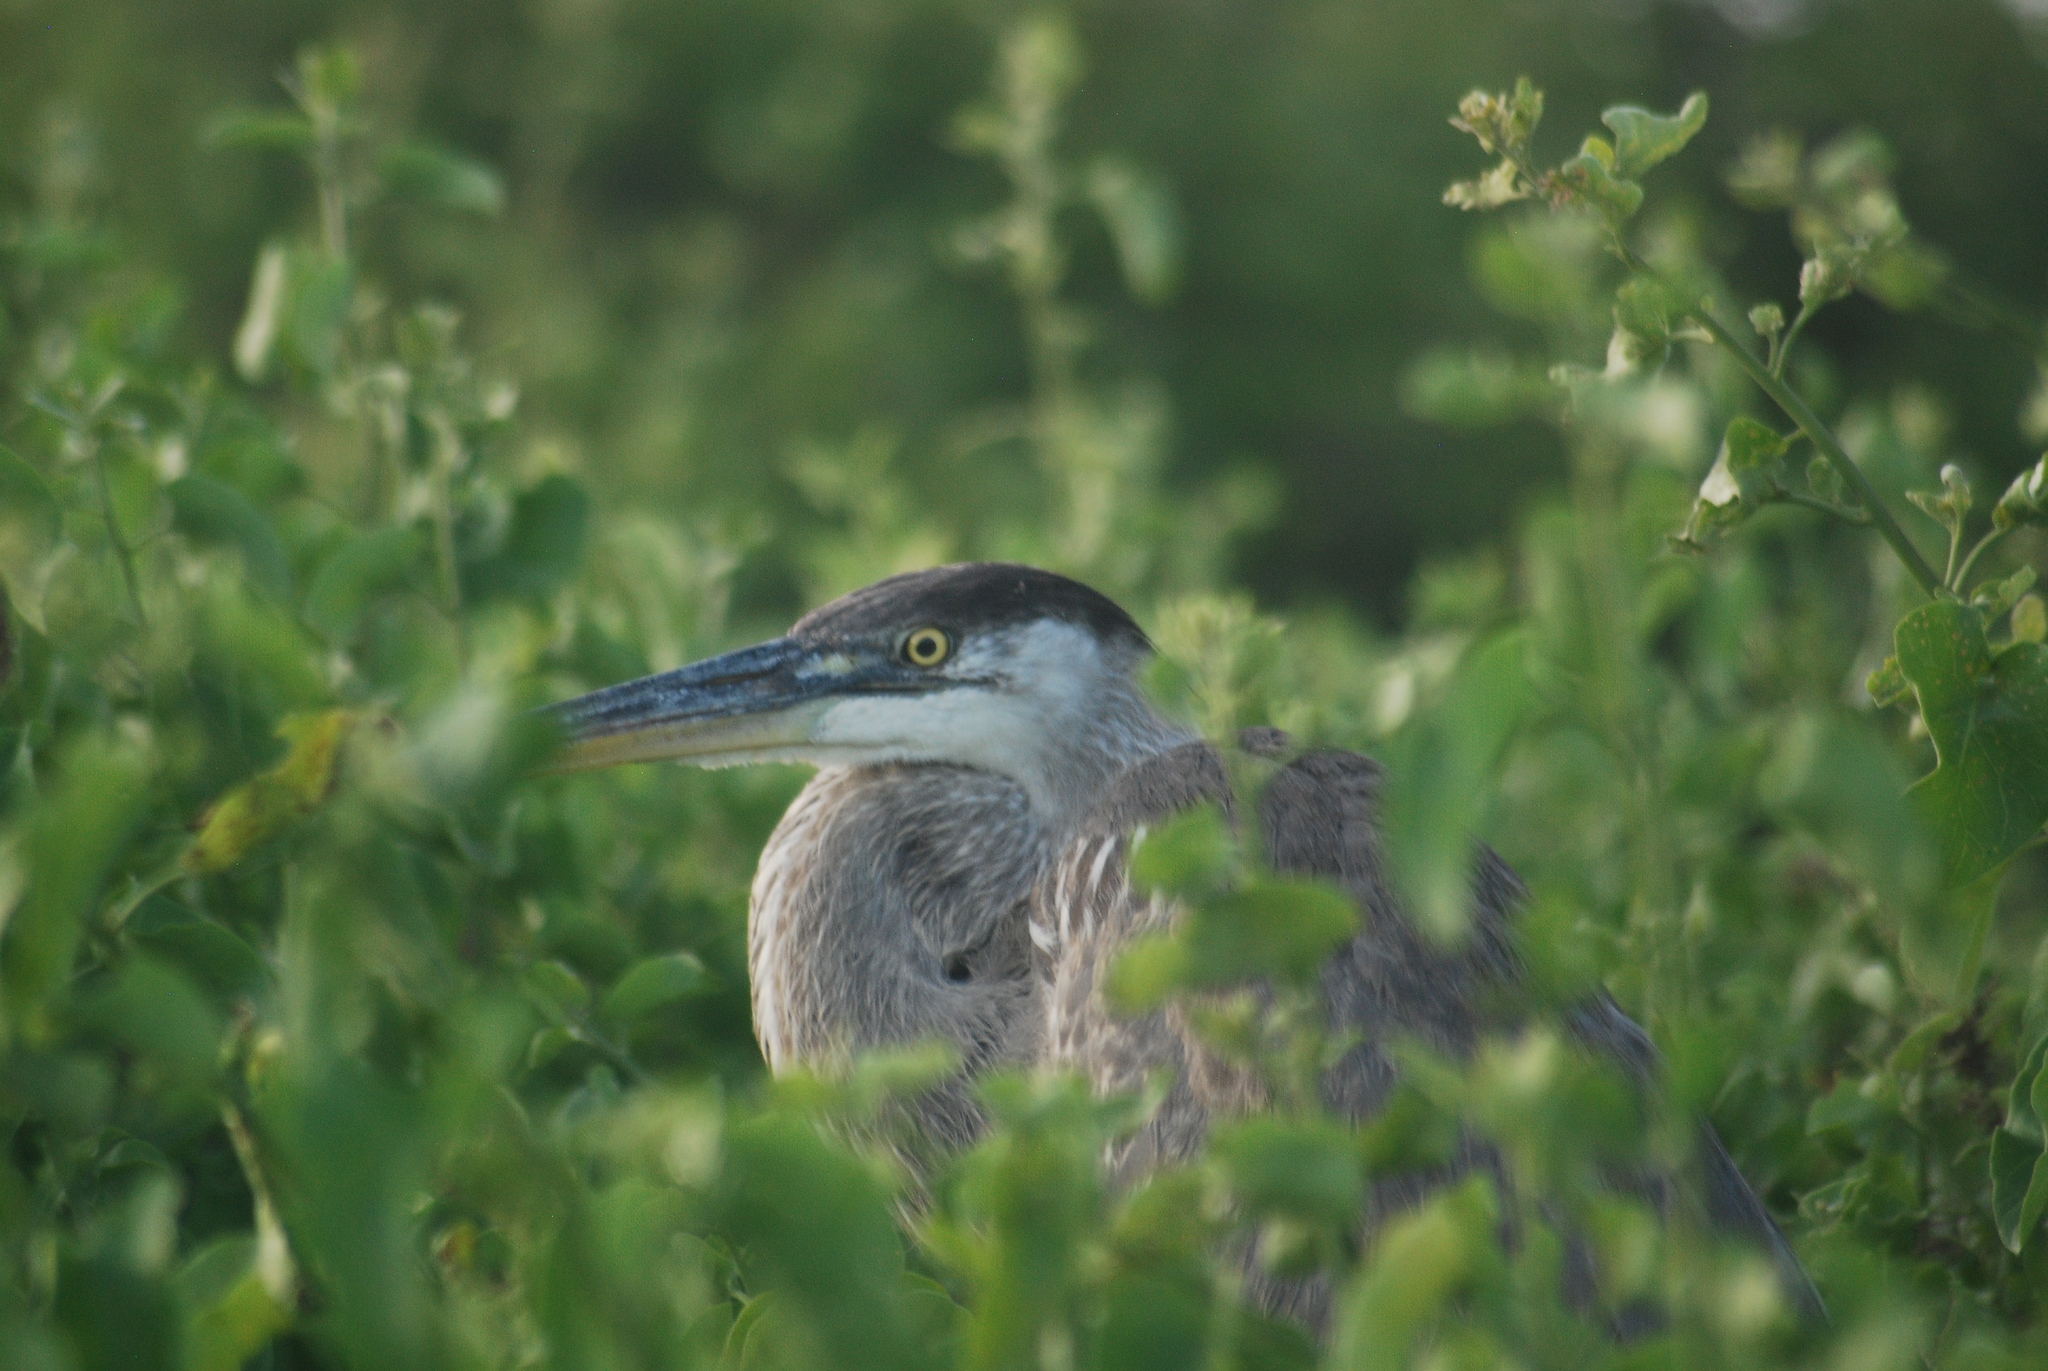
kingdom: Animalia
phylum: Chordata
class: Aves
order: Pelecaniformes
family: Ardeidae
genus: Ardea
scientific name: Ardea herodias
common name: Great blue heron
